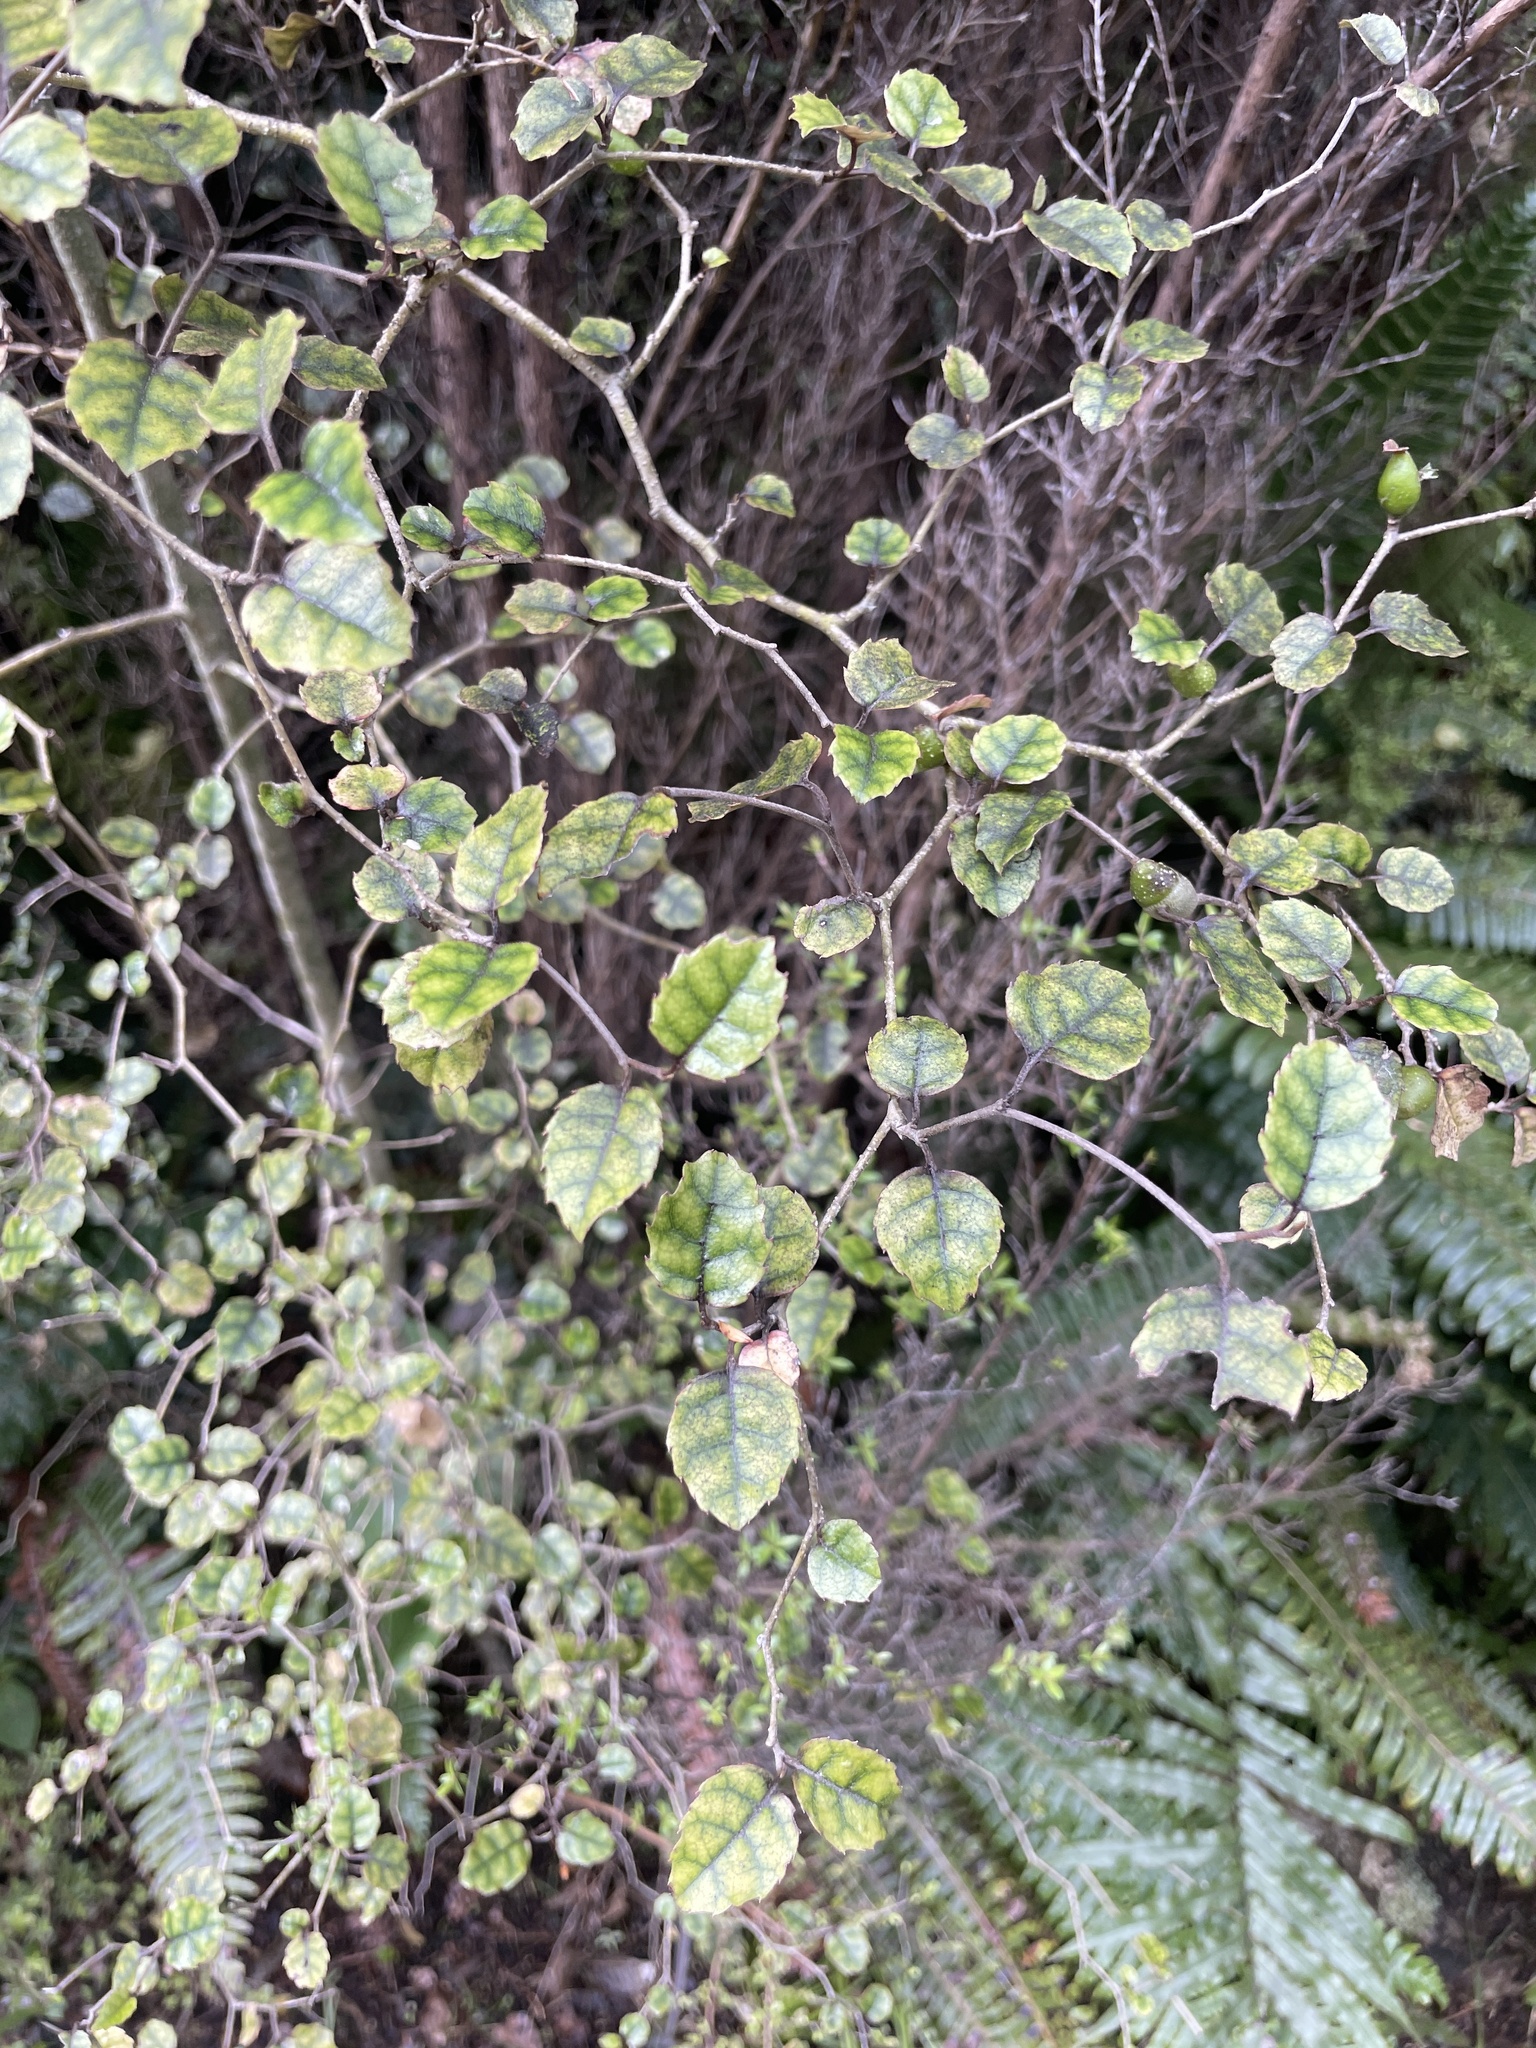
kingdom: Plantae
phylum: Tracheophyta
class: Magnoliopsida
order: Asterales
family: Rousseaceae
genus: Carpodetus
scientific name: Carpodetus serratus
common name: White mapau
